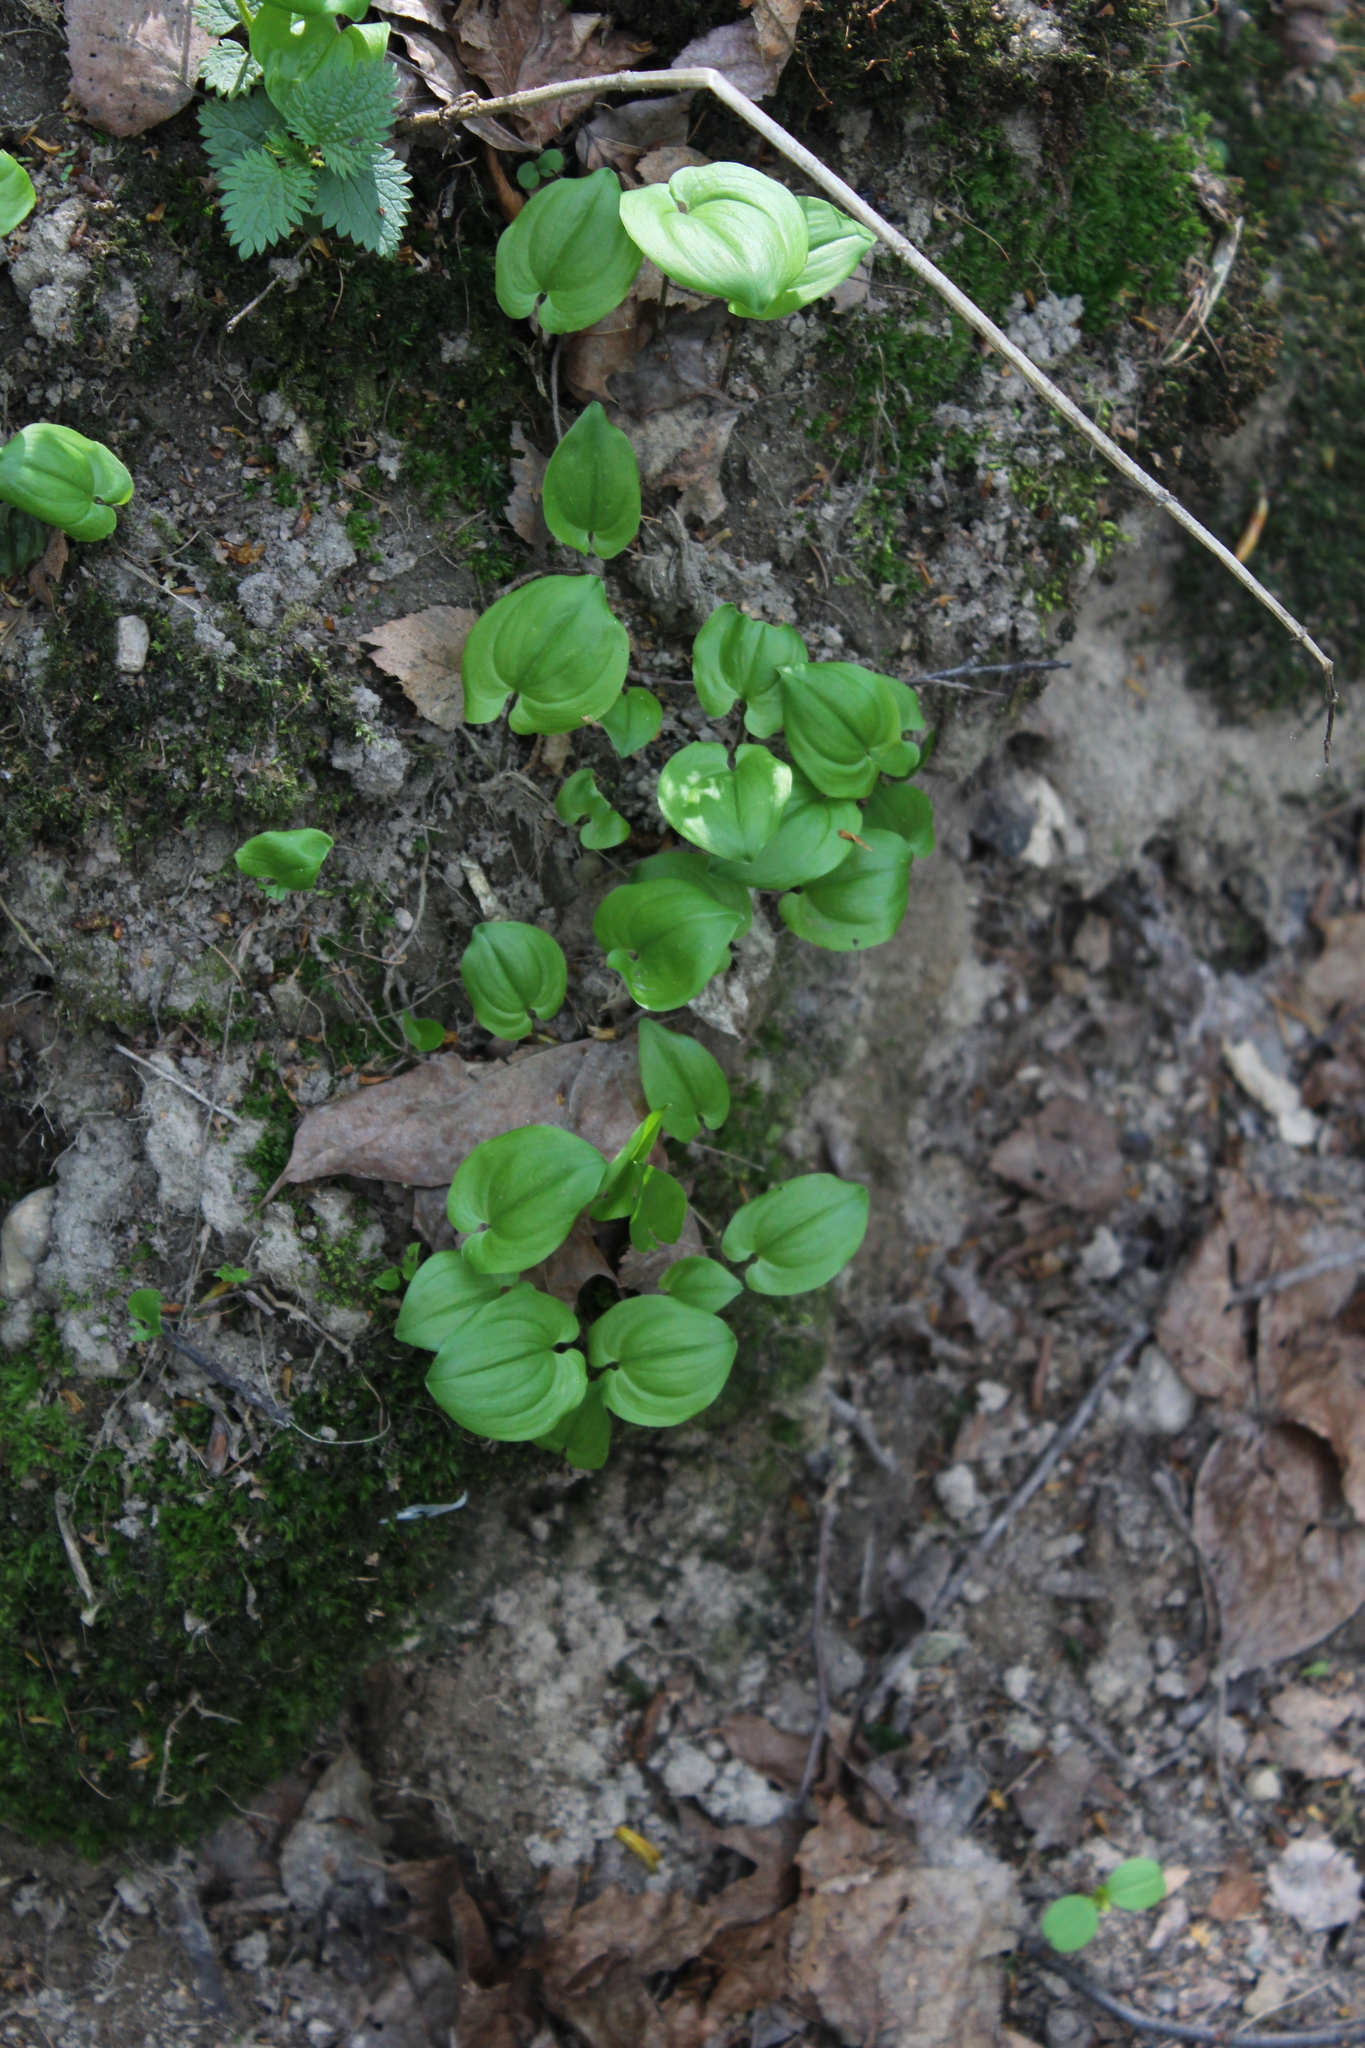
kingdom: Plantae
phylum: Tracheophyta
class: Liliopsida
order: Asparagales
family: Asparagaceae
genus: Maianthemum
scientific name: Maianthemum bifolium
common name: May lily
